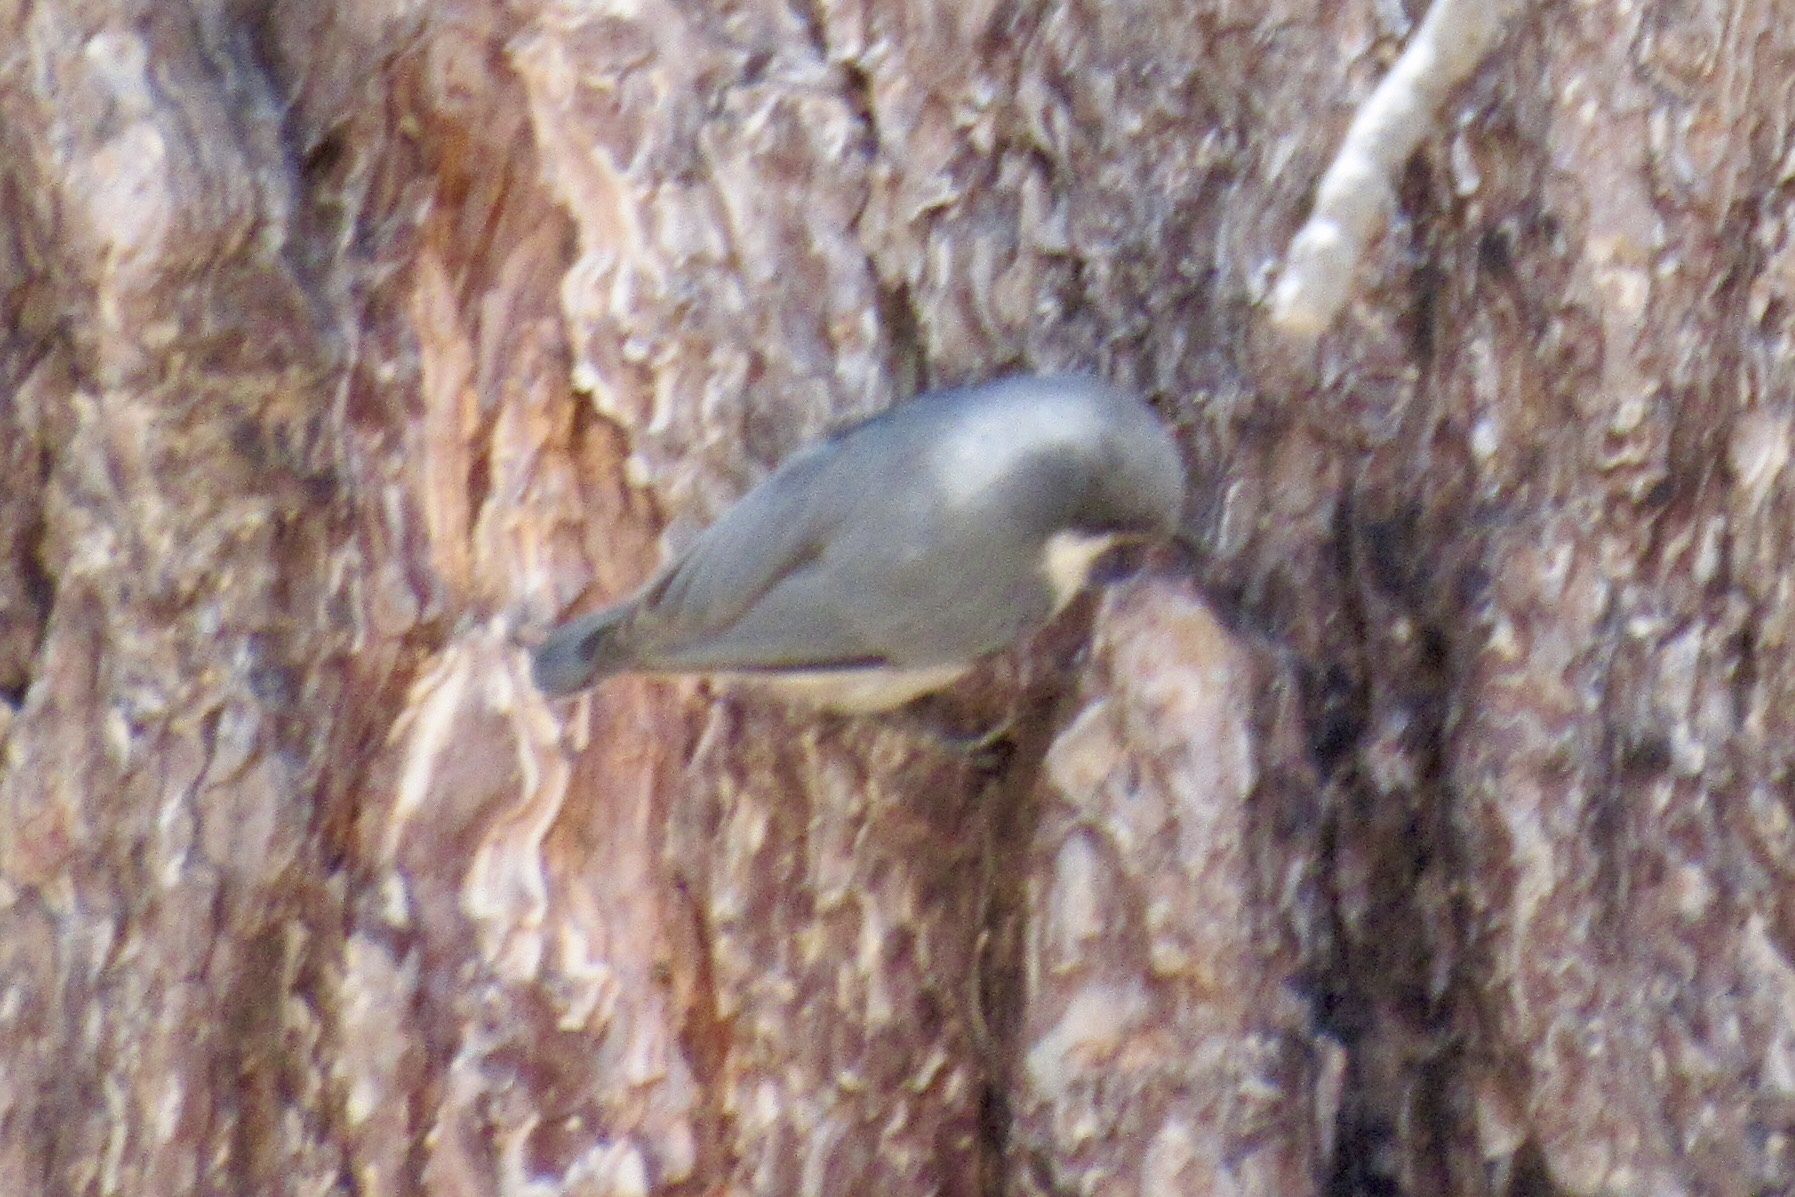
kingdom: Animalia
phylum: Chordata
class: Aves
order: Passeriformes
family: Sittidae
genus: Sitta
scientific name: Sitta pygmaea
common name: Pygmy nuthatch
